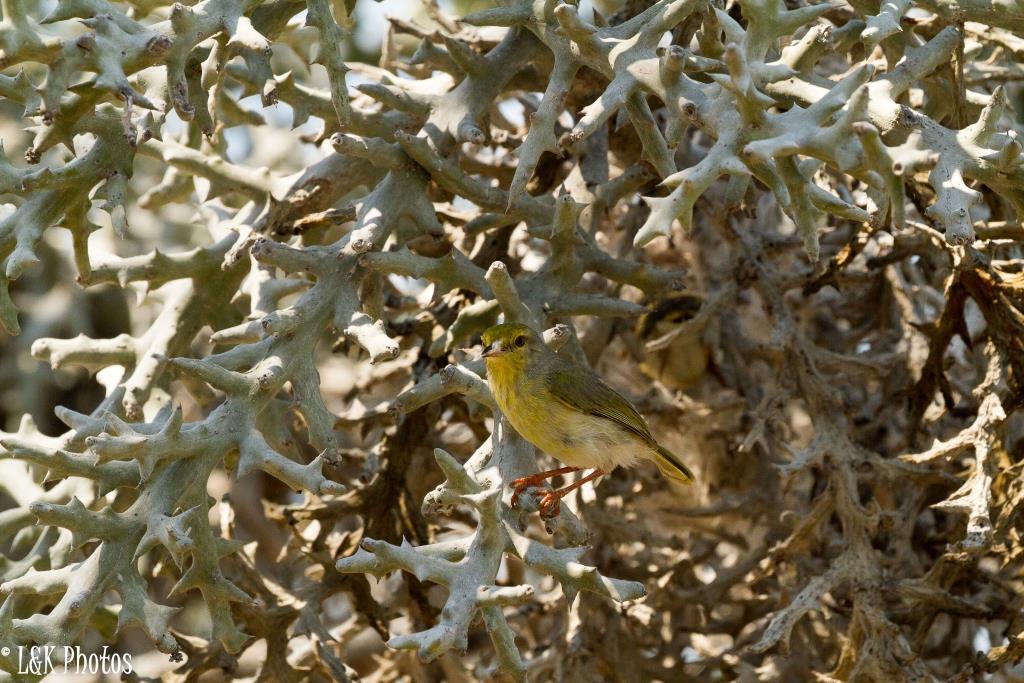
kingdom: Animalia
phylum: Chordata
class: Aves
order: Passeriformes
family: Cisticolidae
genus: Neomixis
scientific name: Neomixis tenella
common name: Common jery
